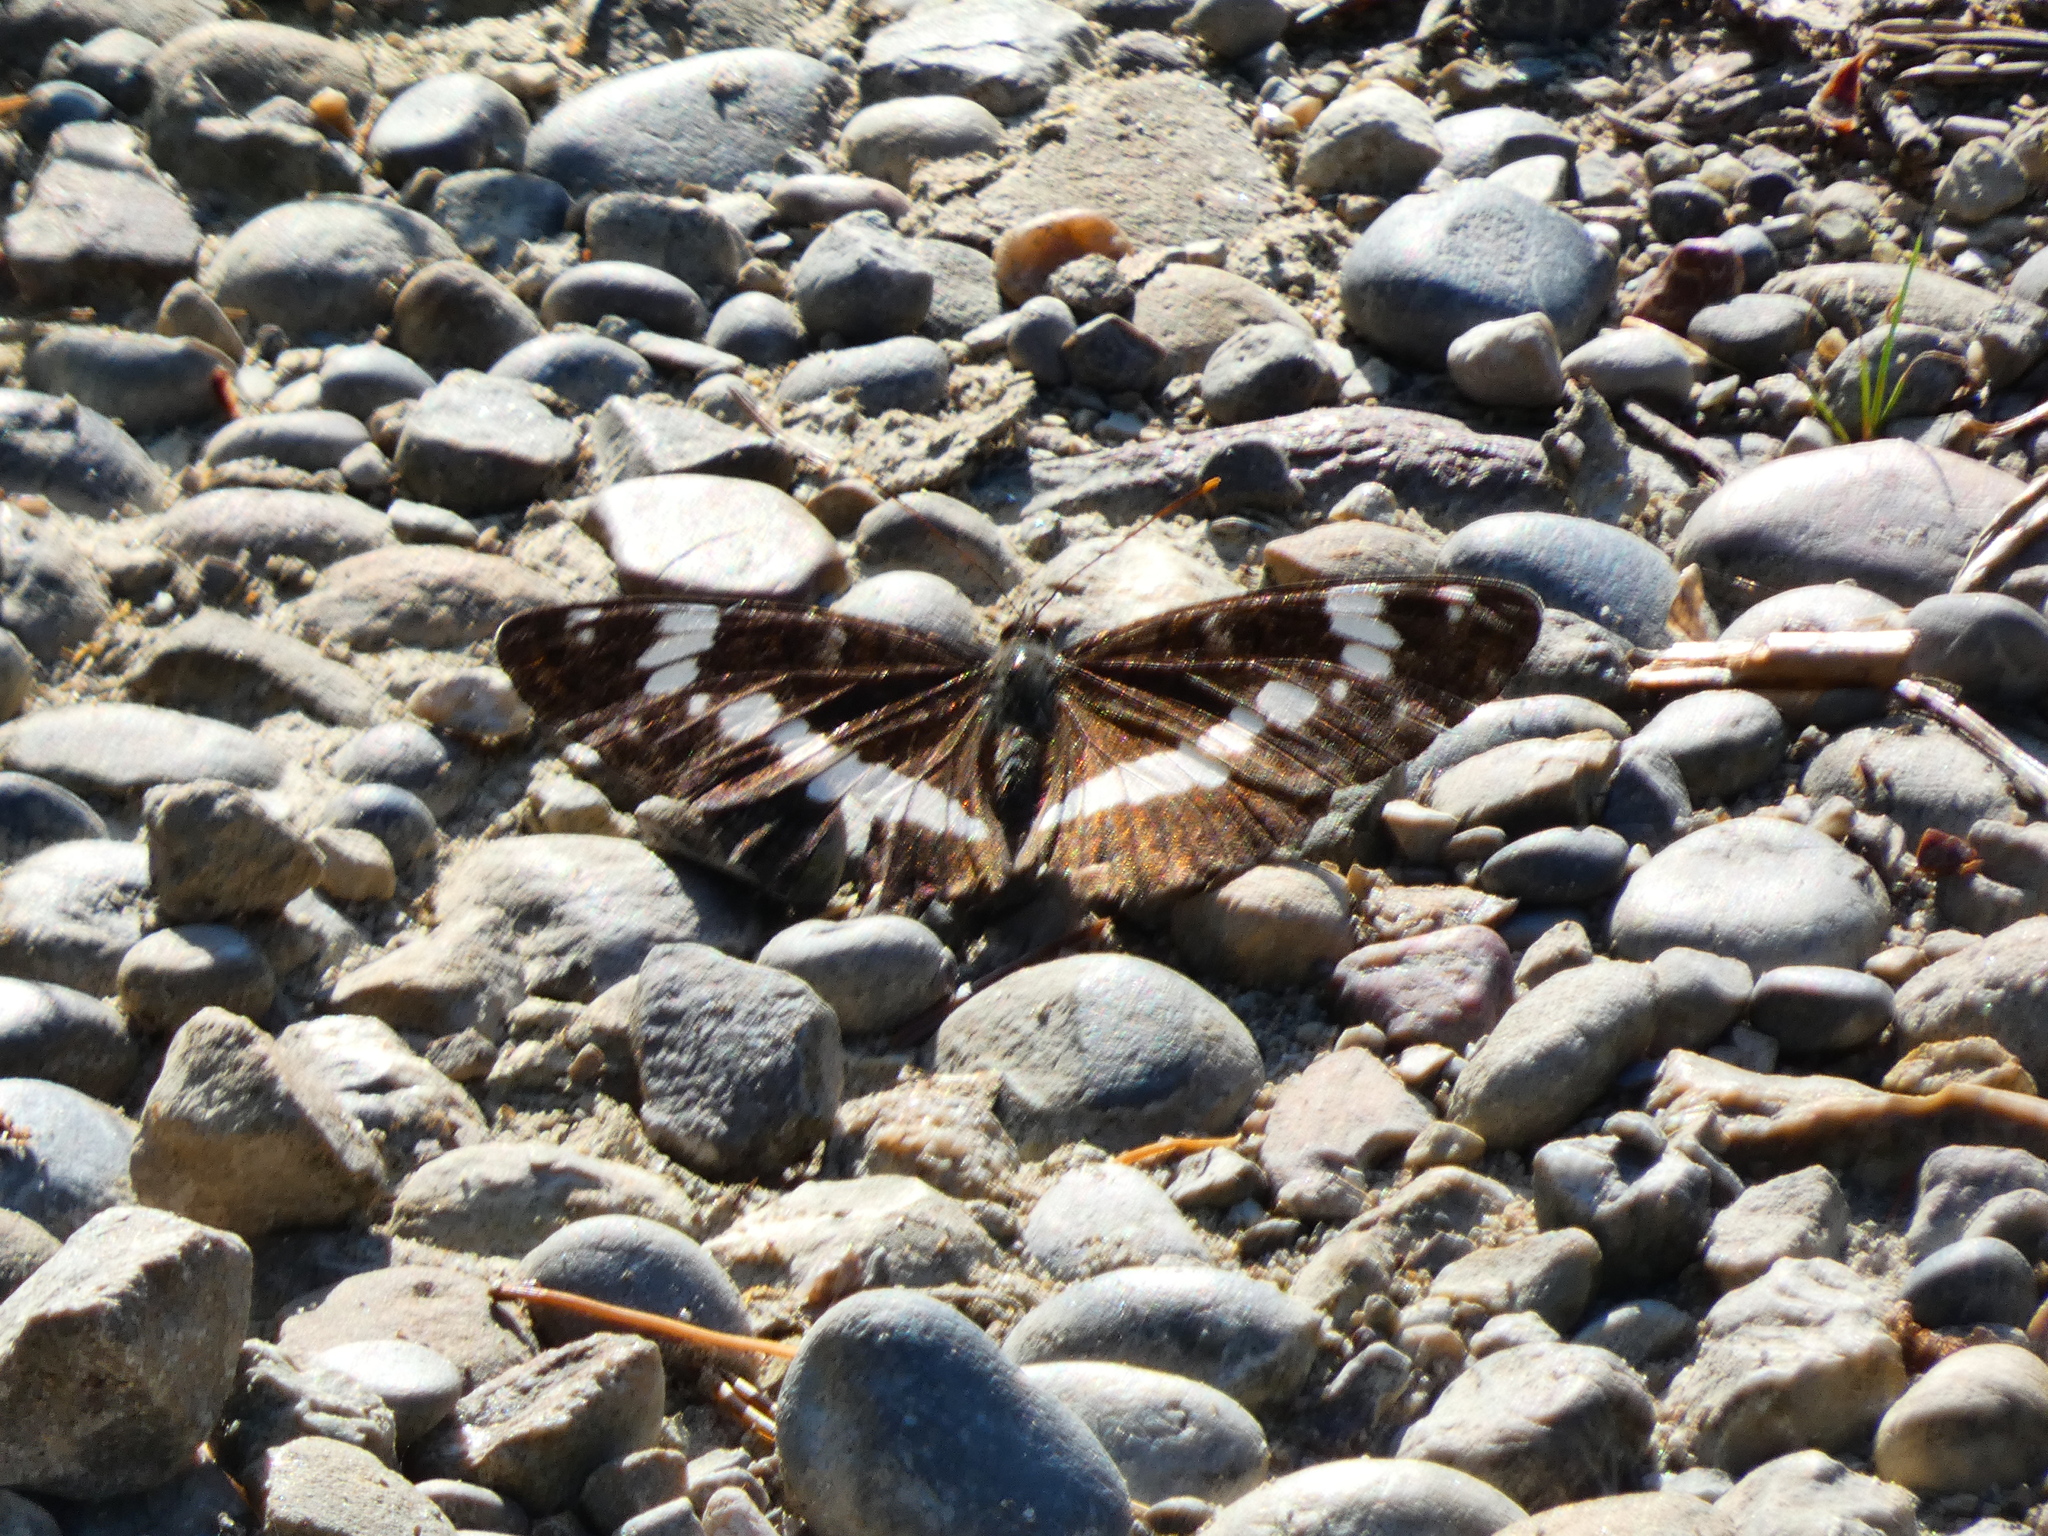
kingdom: Animalia
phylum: Arthropoda
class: Insecta
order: Lepidoptera
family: Nymphalidae
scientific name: Nymphalidae
